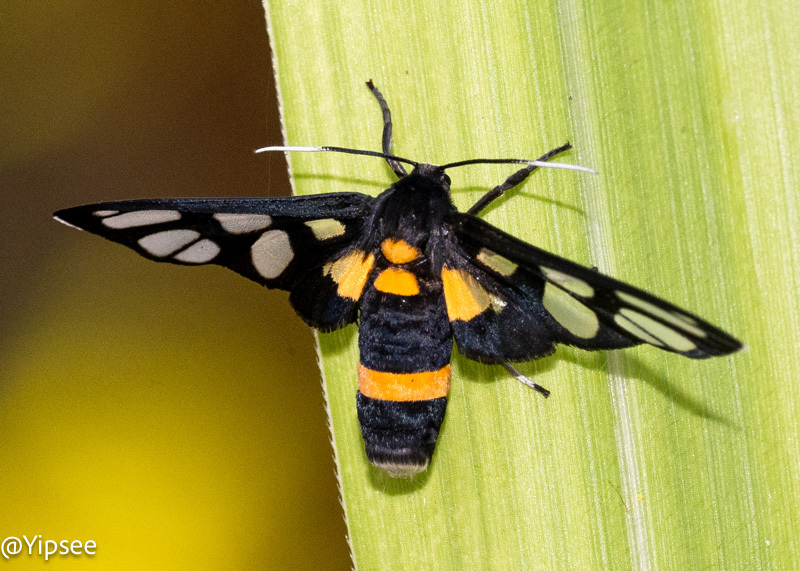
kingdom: Animalia
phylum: Arthropoda
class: Insecta
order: Lepidoptera
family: Erebidae
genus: Amata
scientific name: Amata sperbius
